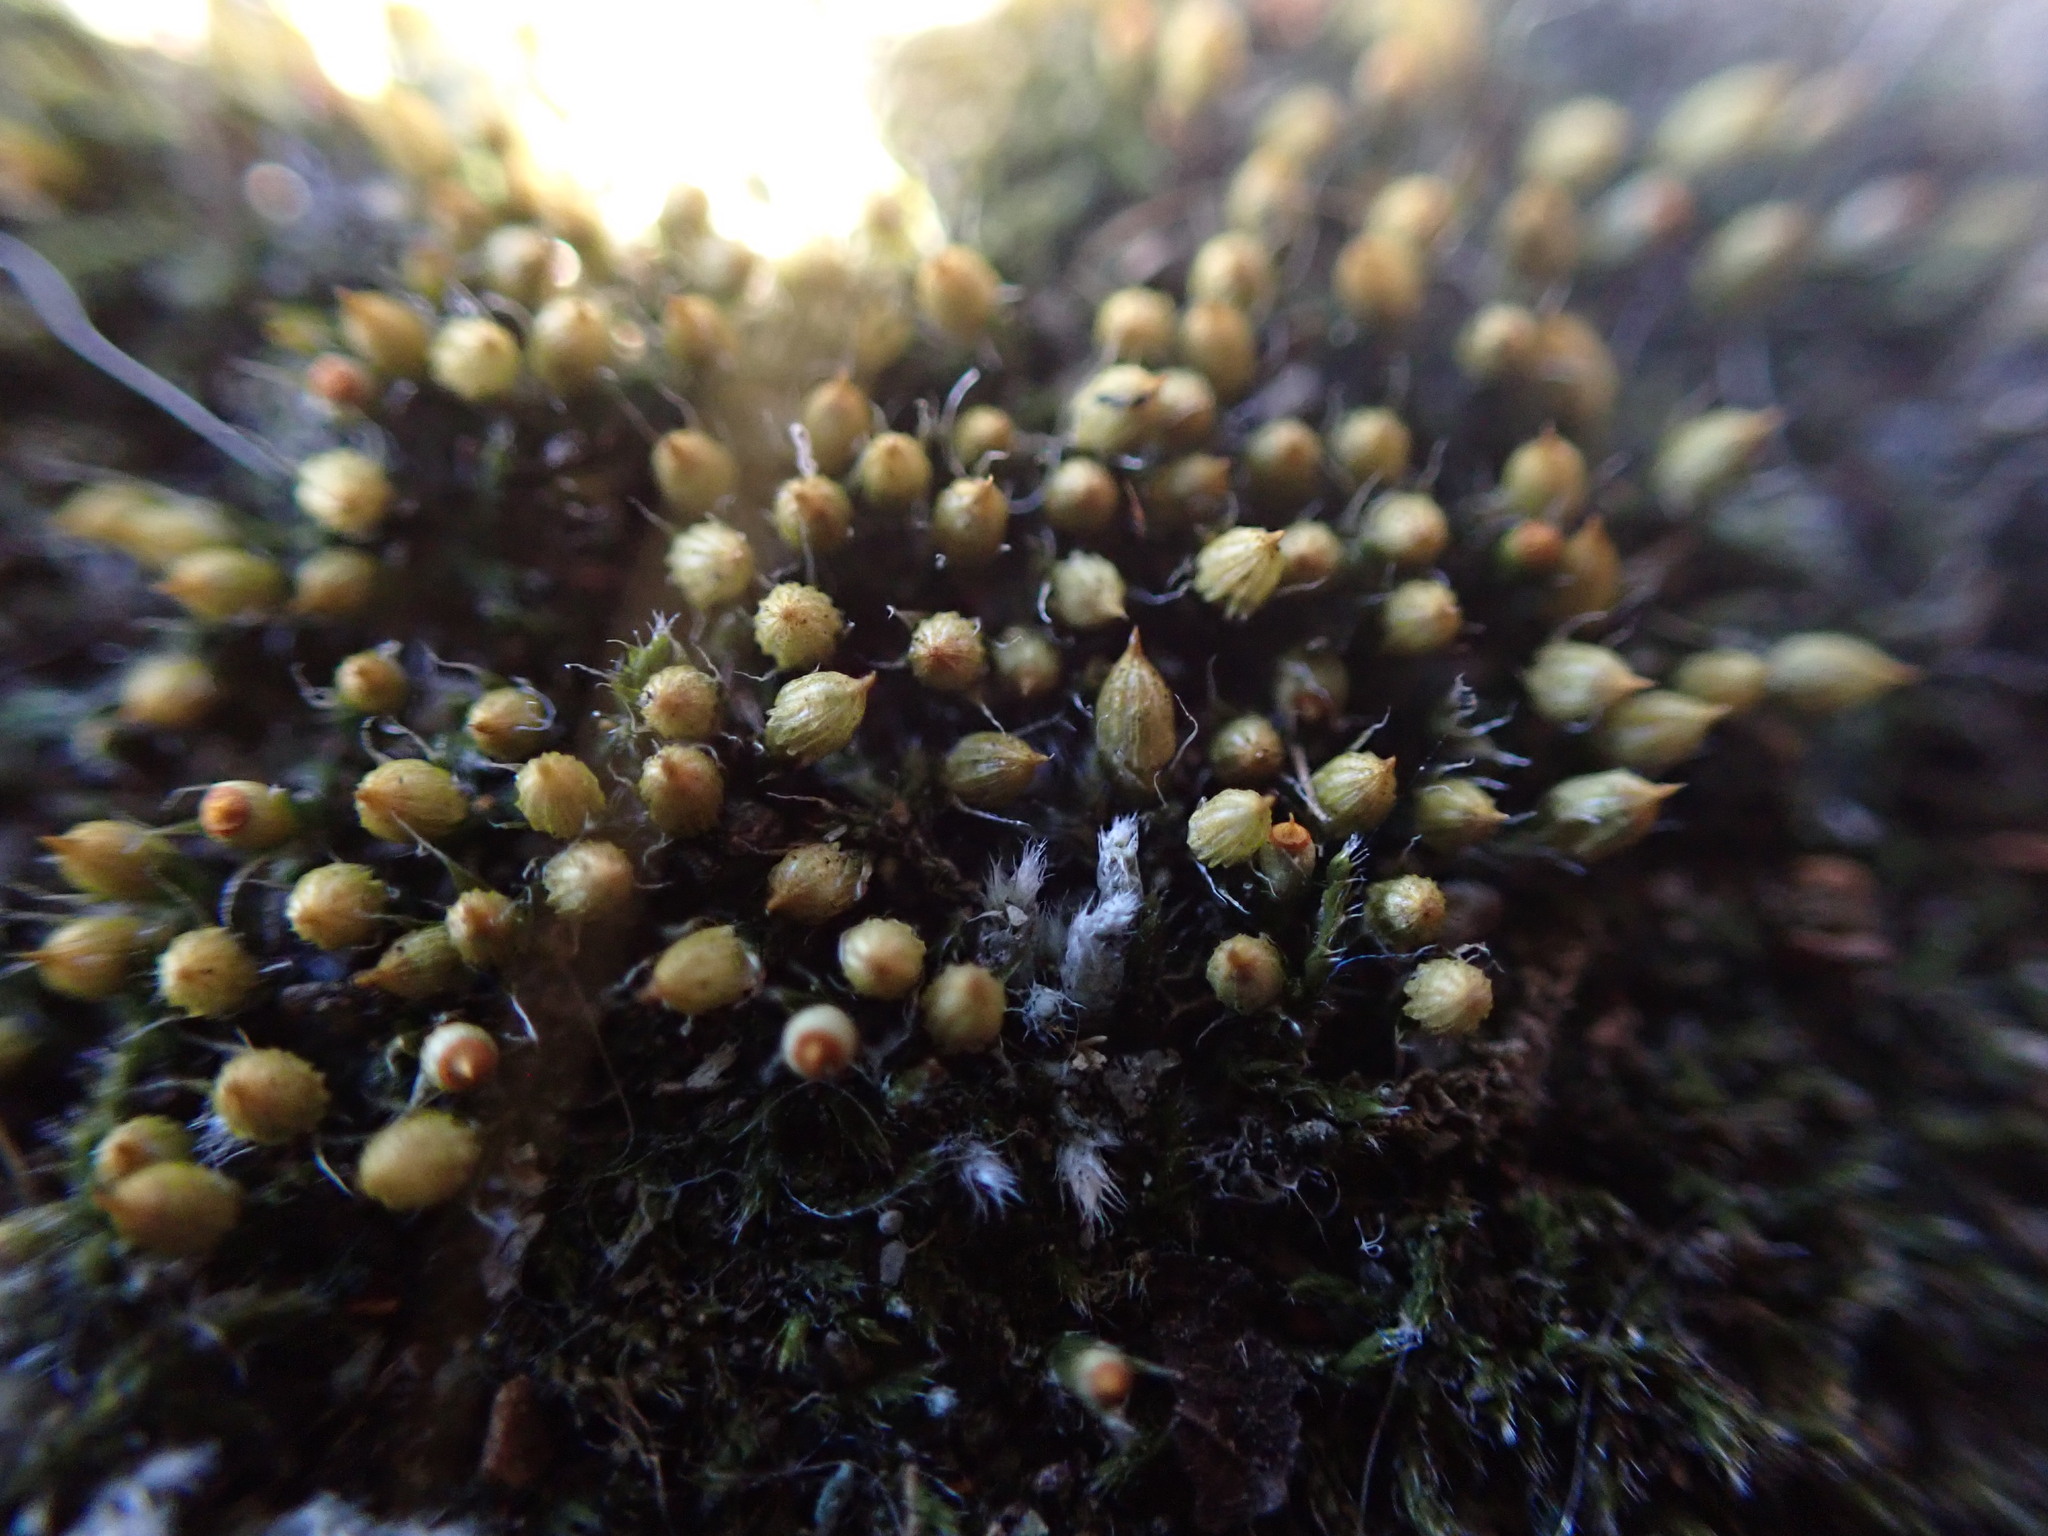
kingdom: Plantae
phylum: Bryophyta
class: Bryopsida
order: Dicranales
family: Erpodiaceae
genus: Venturiella
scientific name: Venturiella sinensis
